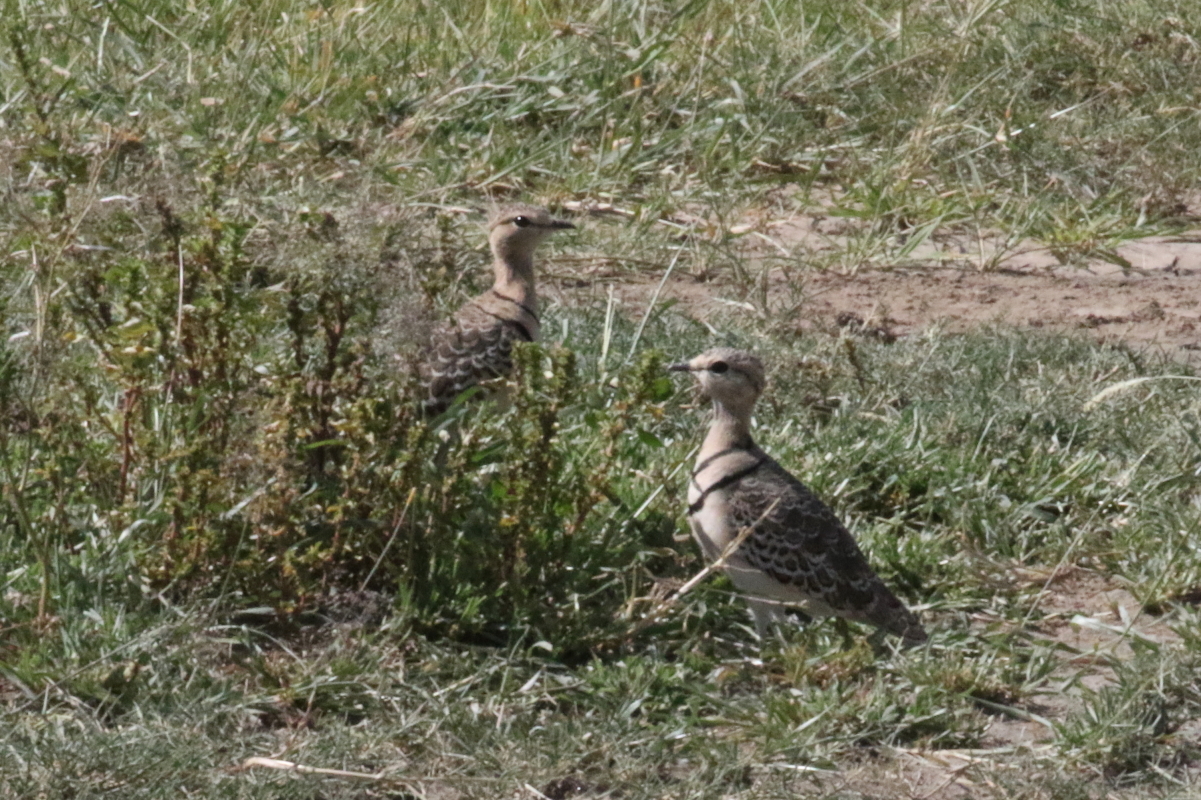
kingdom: Animalia
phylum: Chordata
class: Aves
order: Charadriiformes
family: Glareolidae
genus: Rhinoptilus
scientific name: Rhinoptilus africanus
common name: Double-banded courser
